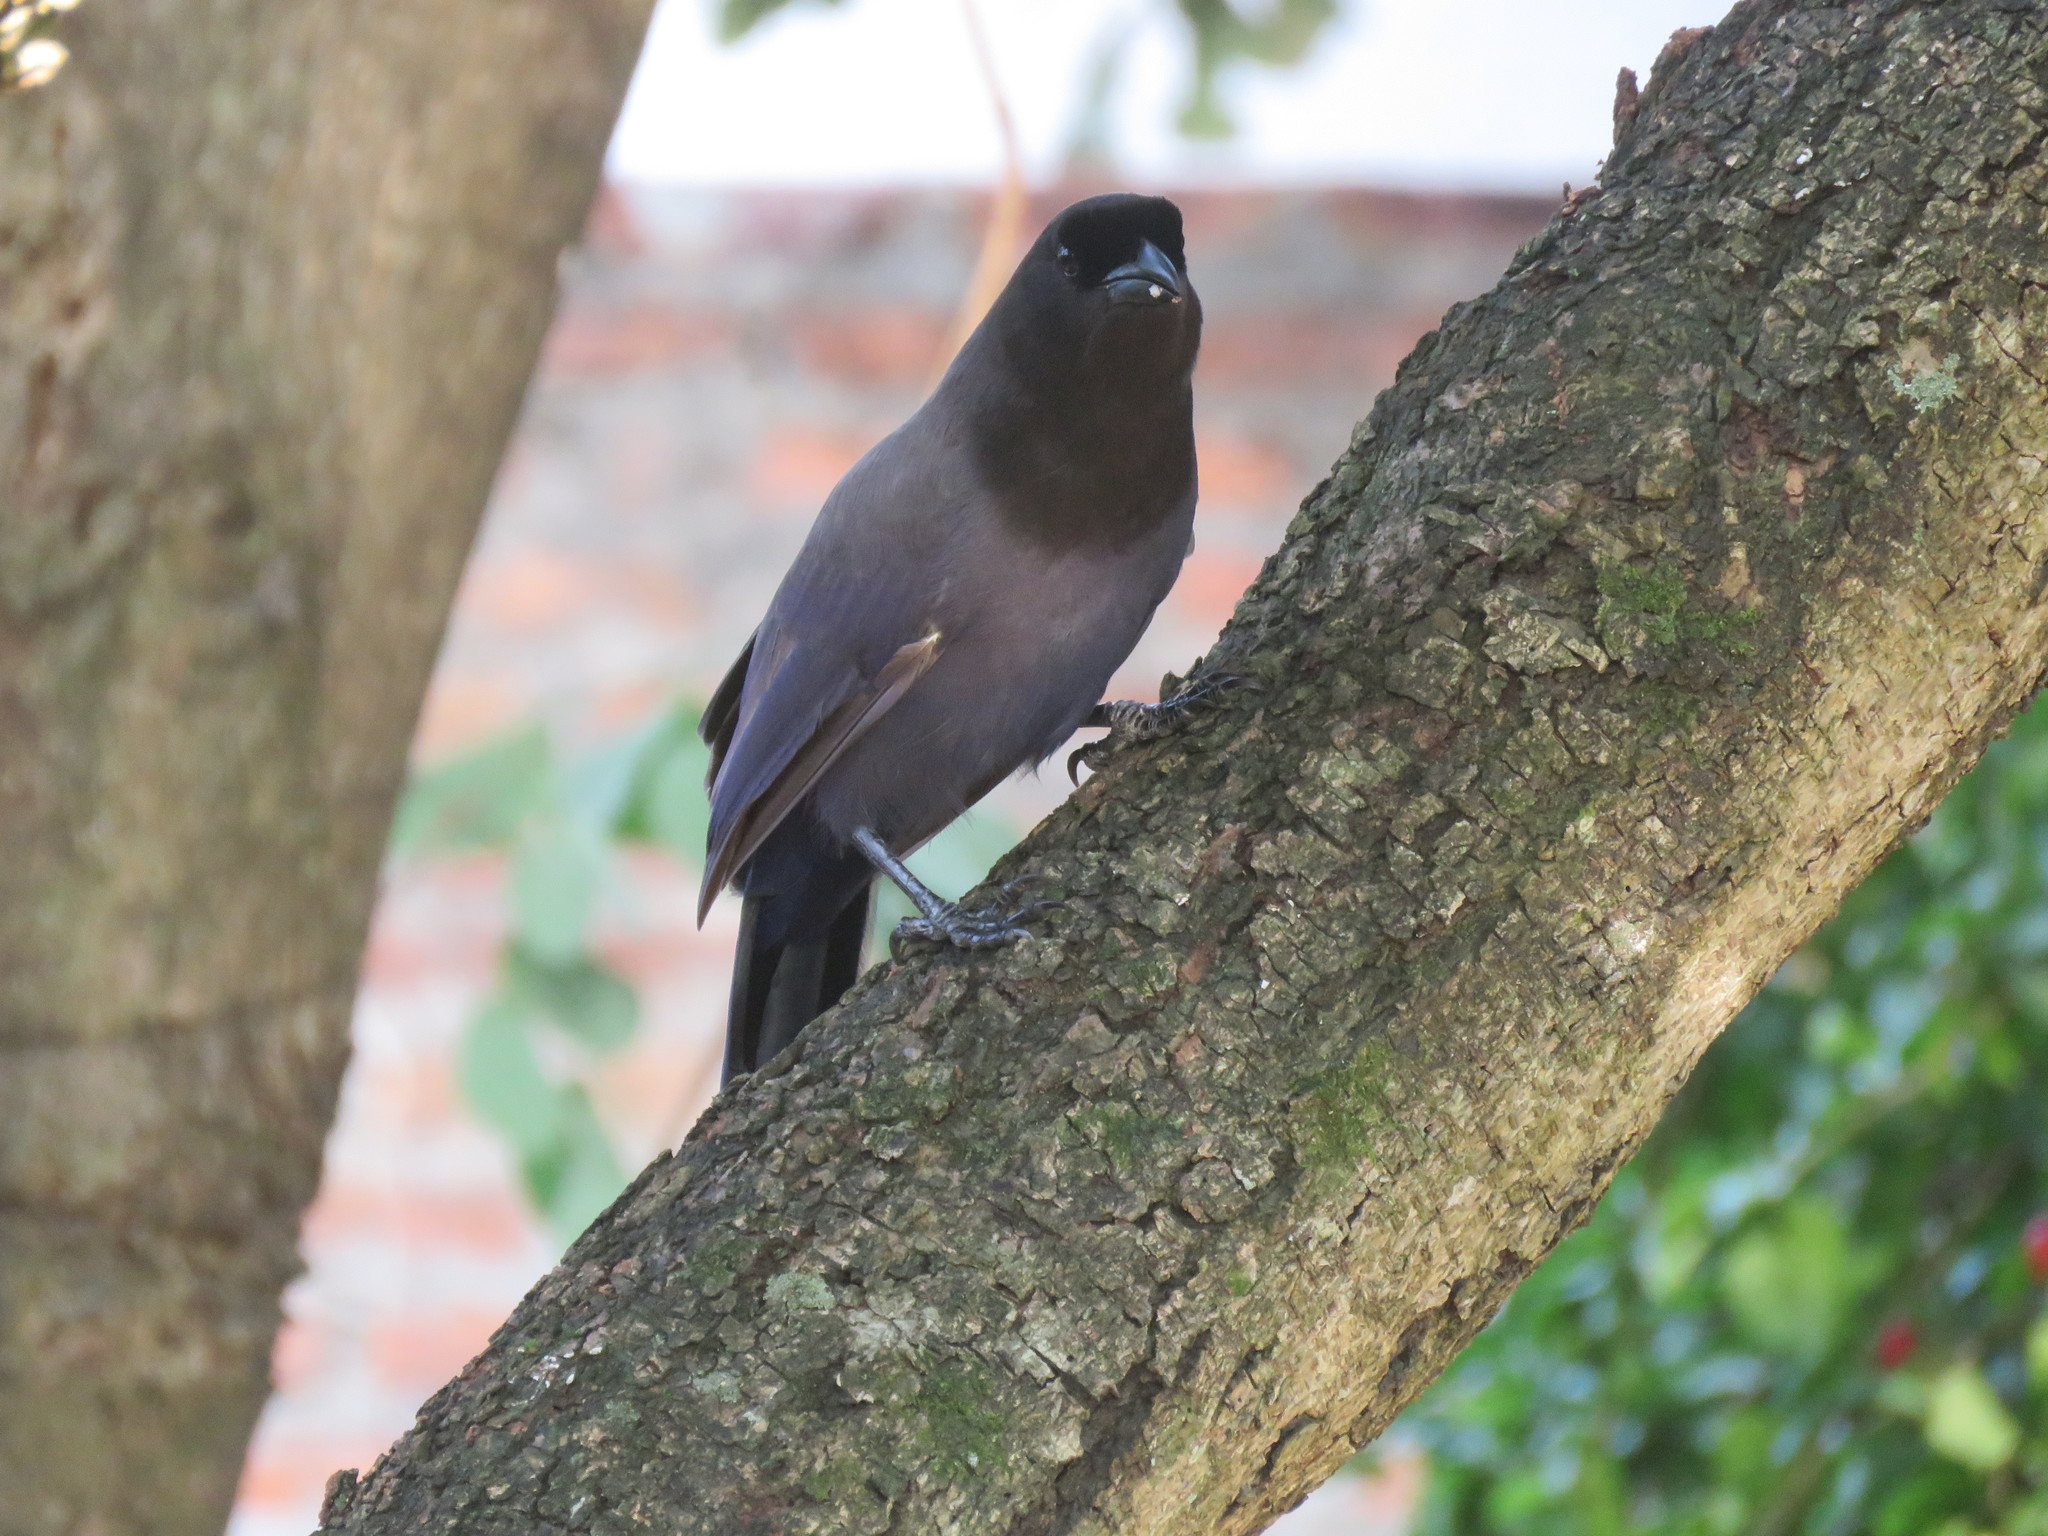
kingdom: Animalia
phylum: Chordata
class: Aves
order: Passeriformes
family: Corvidae
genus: Cyanocorax
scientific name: Cyanocorax cyanomelas
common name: Purplish jay
